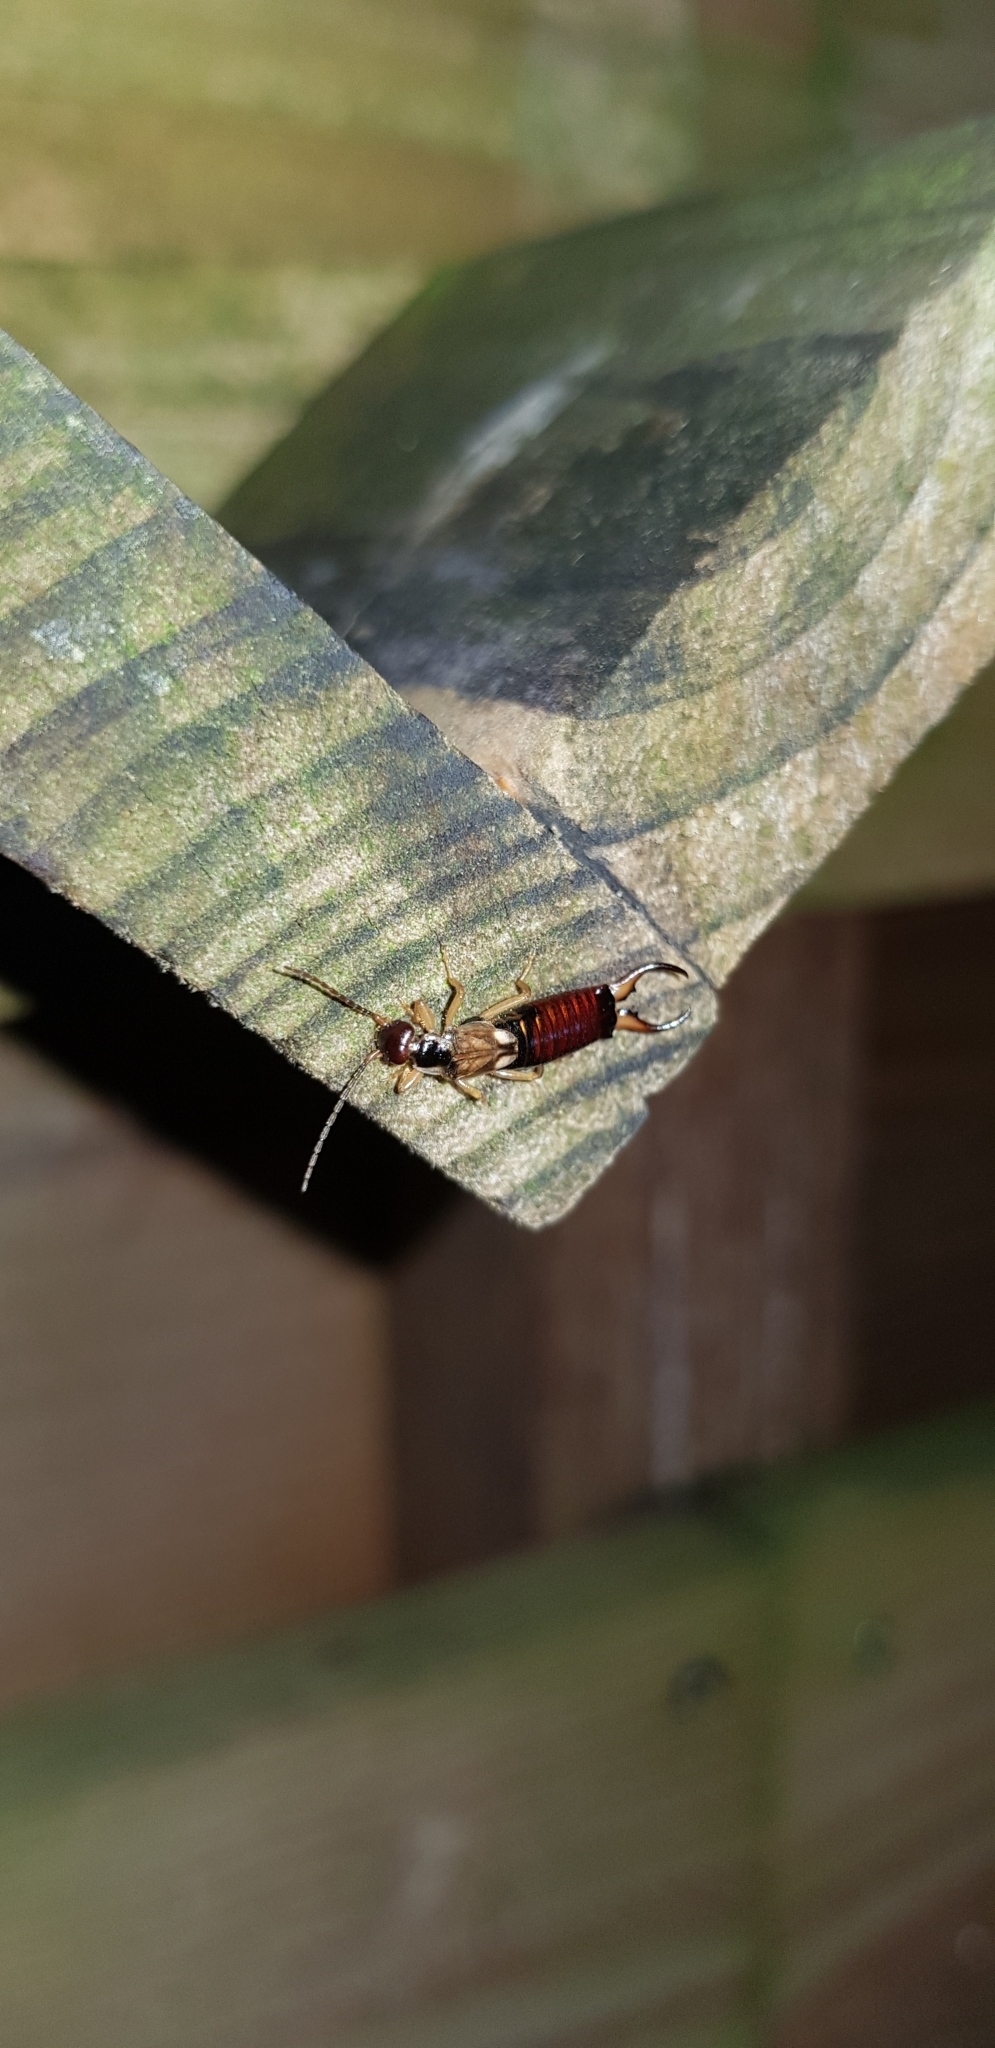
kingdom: Animalia
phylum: Arthropoda
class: Insecta
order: Dermaptera
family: Forficulidae
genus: Forficula
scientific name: Forficula
